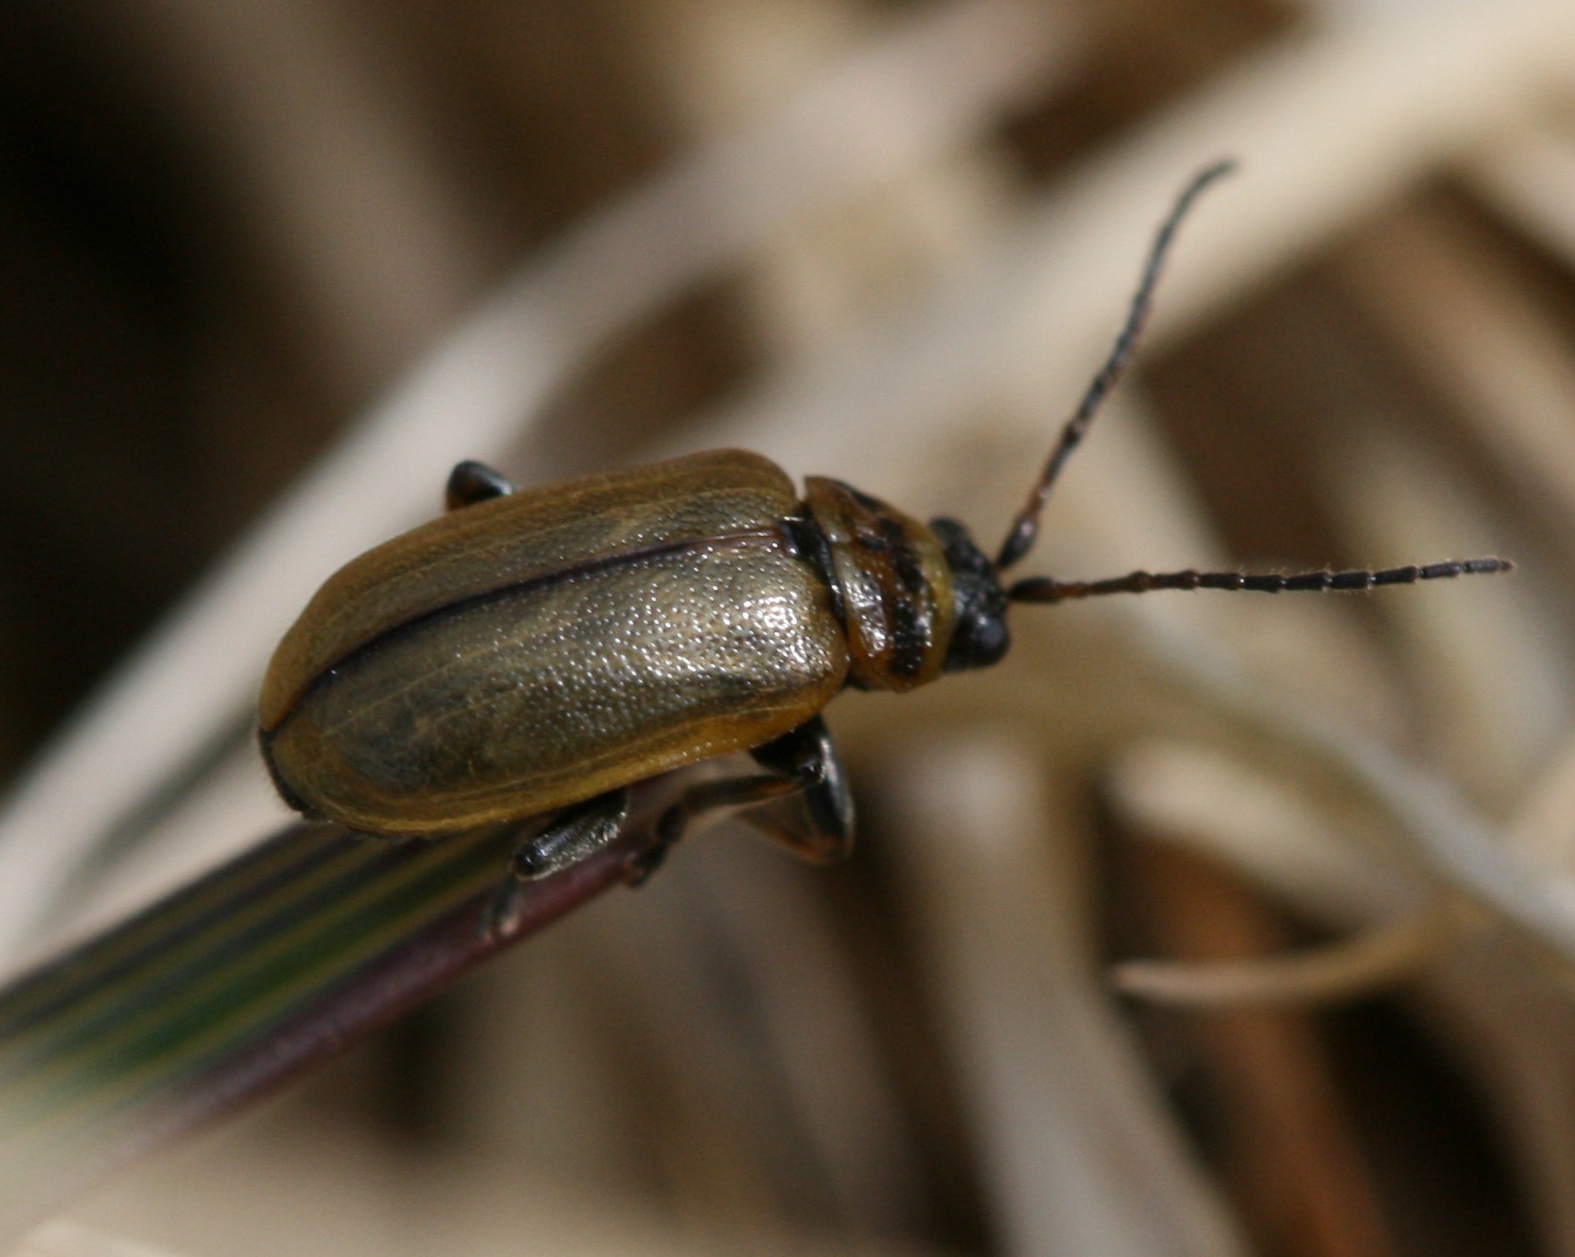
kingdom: Animalia
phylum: Arthropoda
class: Insecta
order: Coleoptera
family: Chrysomelidae
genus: Lochmaea
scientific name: Lochmaea suturalis
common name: Heather beetle
